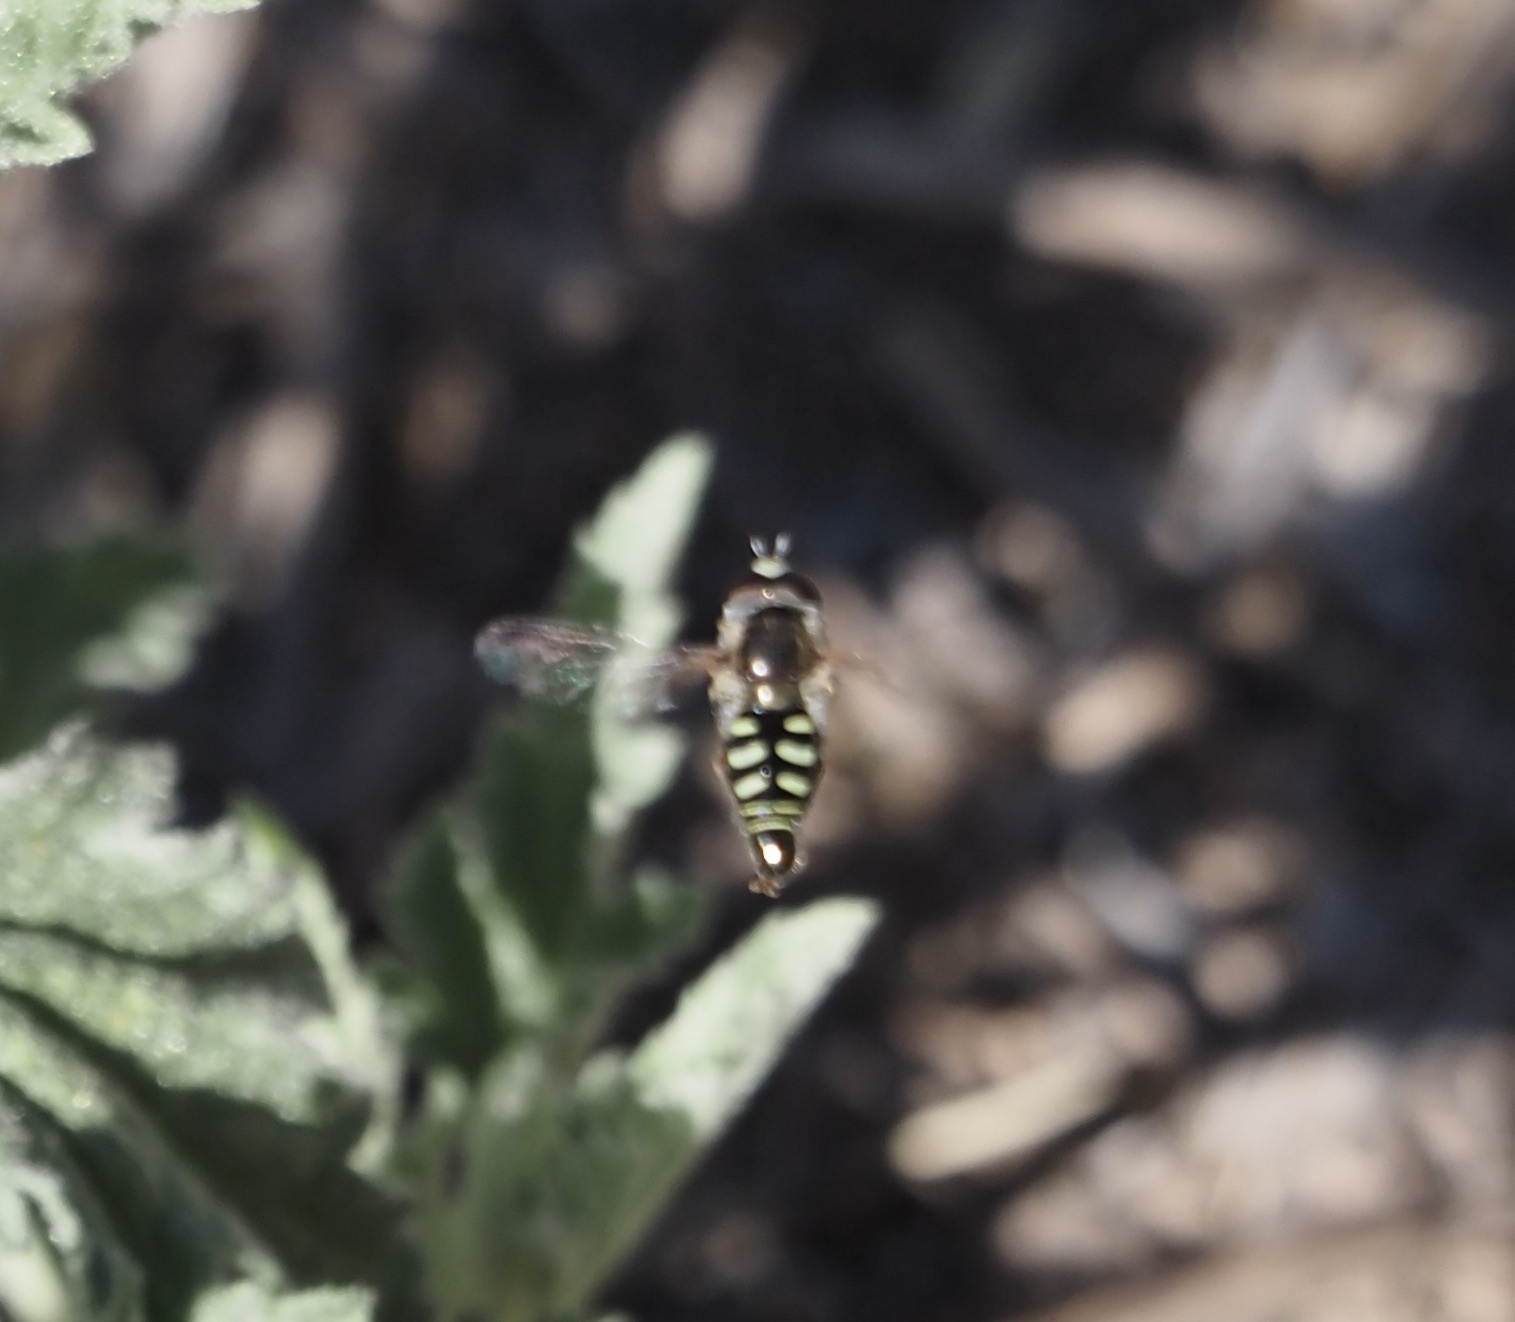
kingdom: Animalia
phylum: Arthropoda
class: Insecta
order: Diptera
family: Syrphidae
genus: Eupeodes
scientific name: Eupeodes volucris
